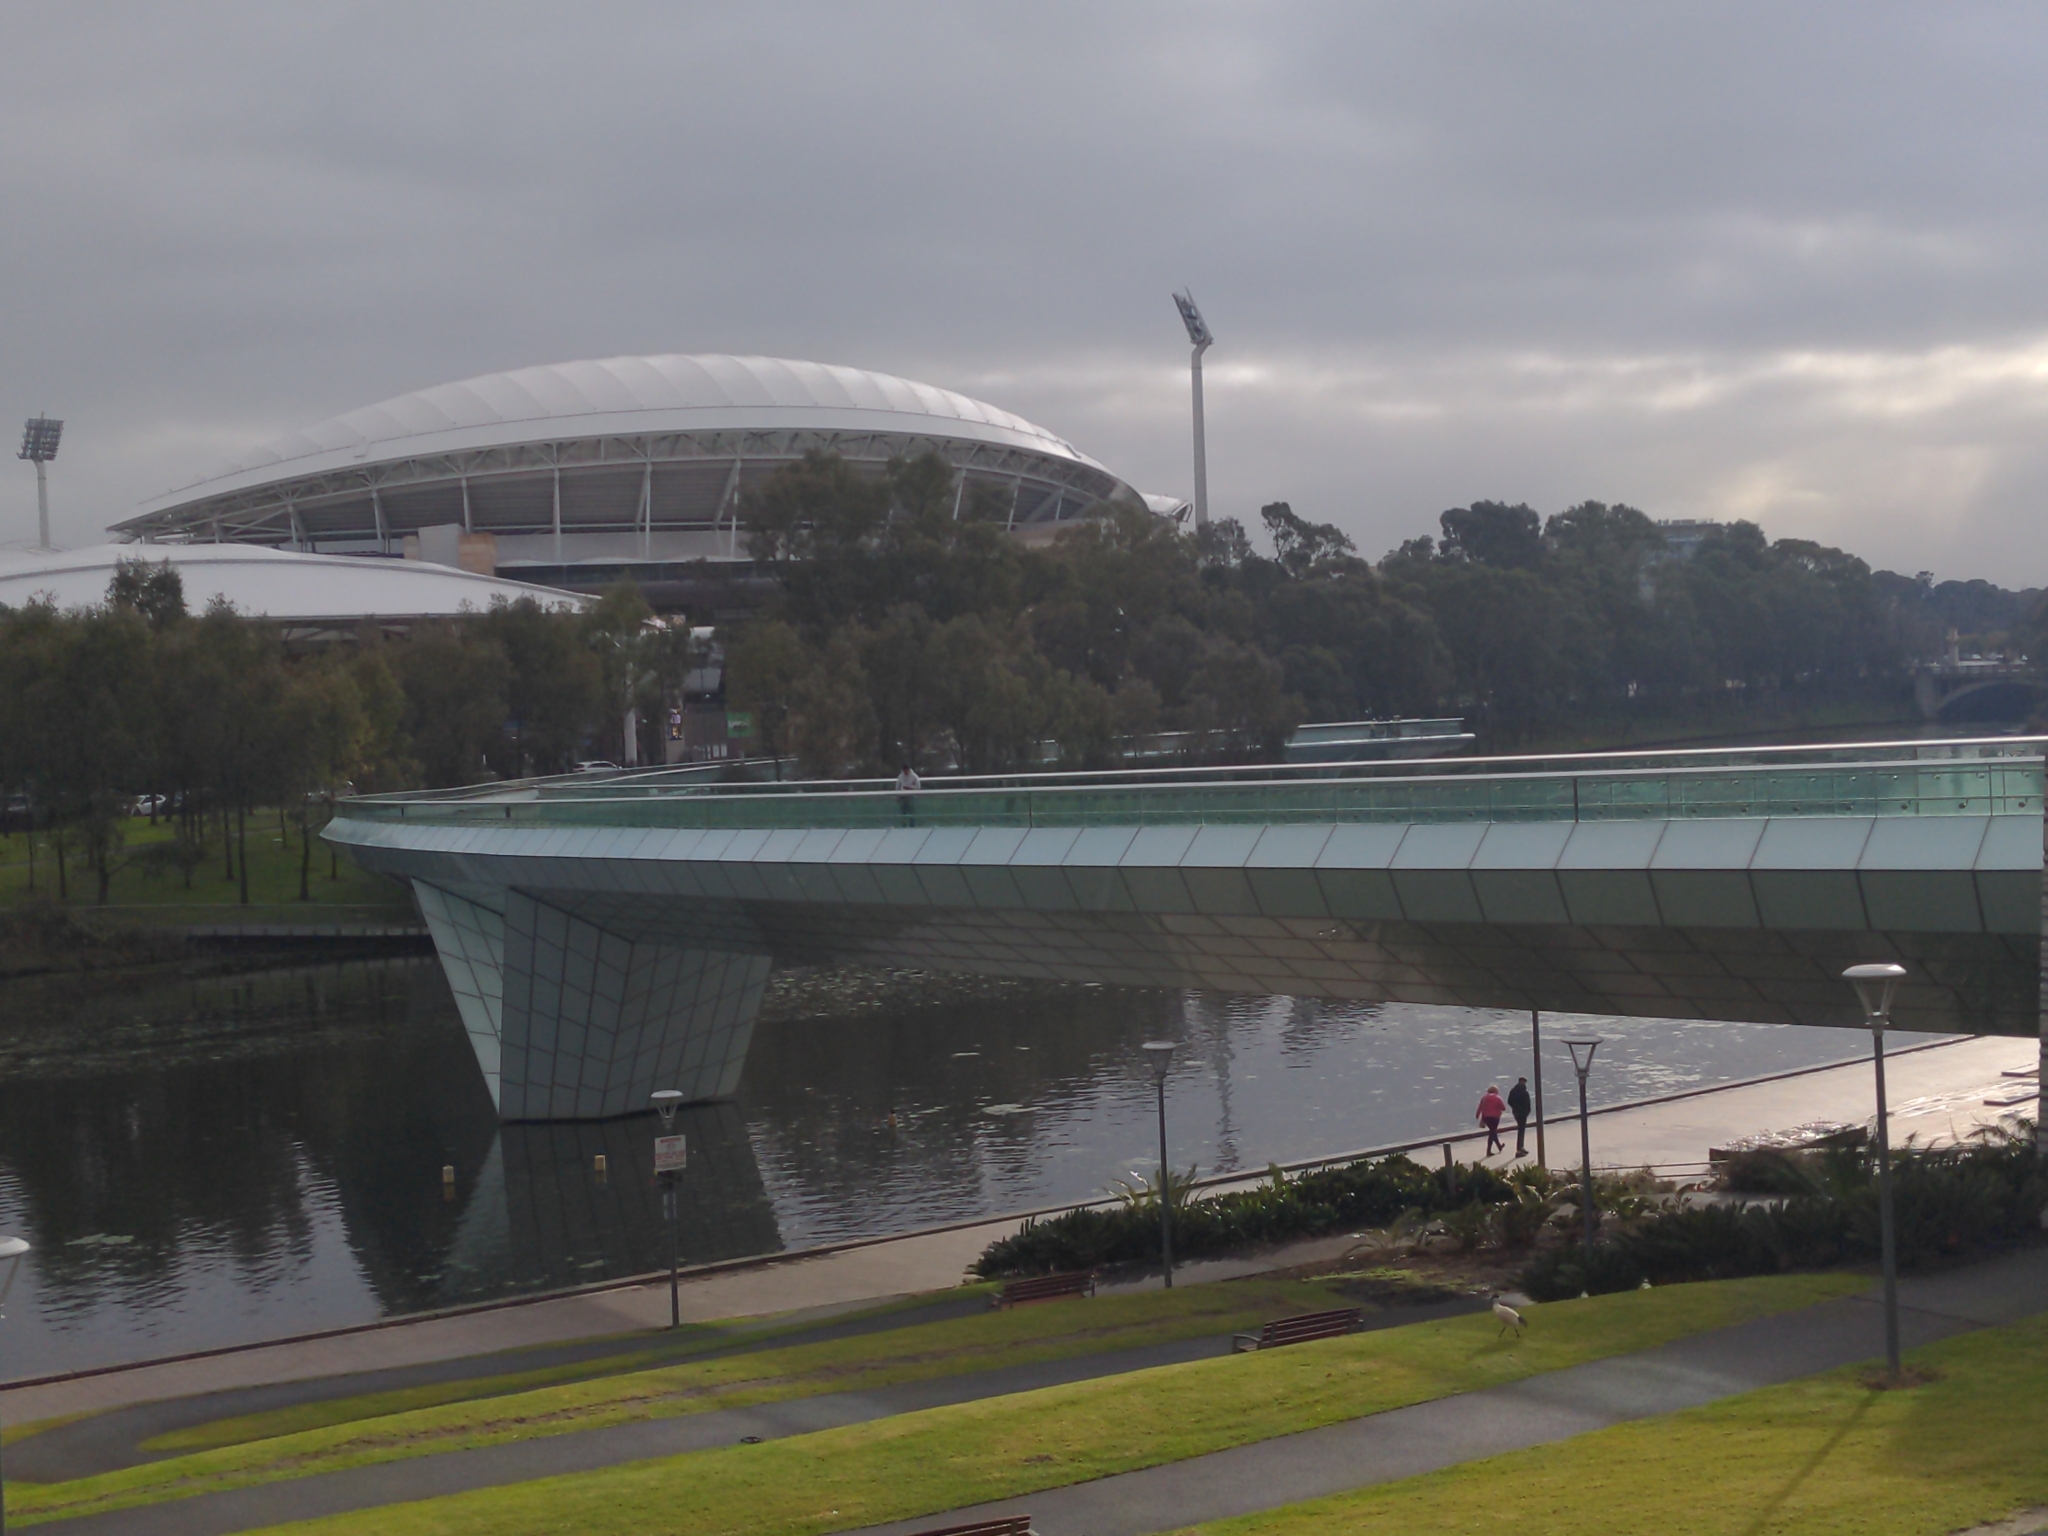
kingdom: Animalia
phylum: Chordata
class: Aves
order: Pelecaniformes
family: Threskiornithidae
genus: Threskiornis
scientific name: Threskiornis molucca
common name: Australian white ibis
